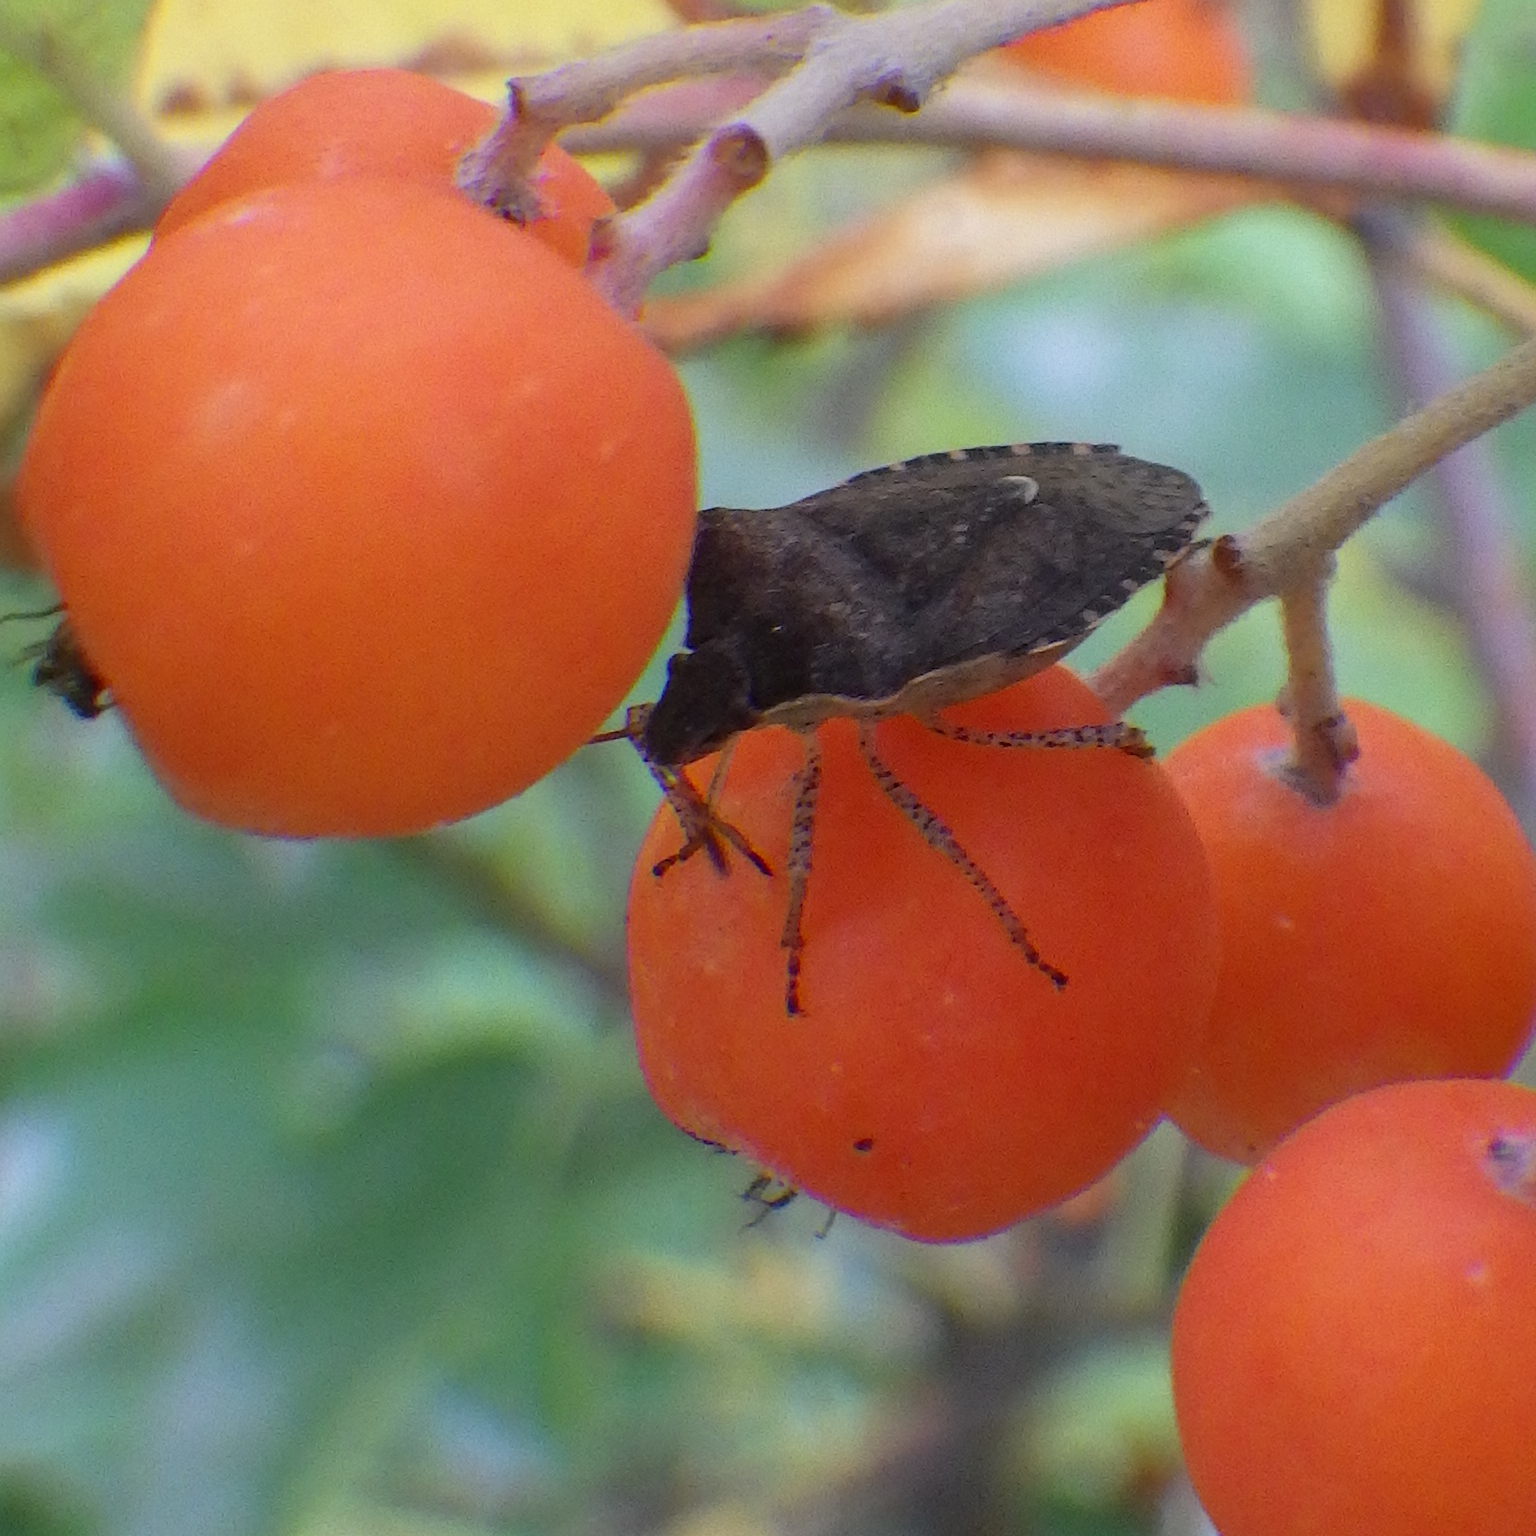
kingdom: Animalia
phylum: Arthropoda
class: Insecta
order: Hemiptera
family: Pentatomidae
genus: Euschistus
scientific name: Euschistus tristigmus
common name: Dusky stink bug
